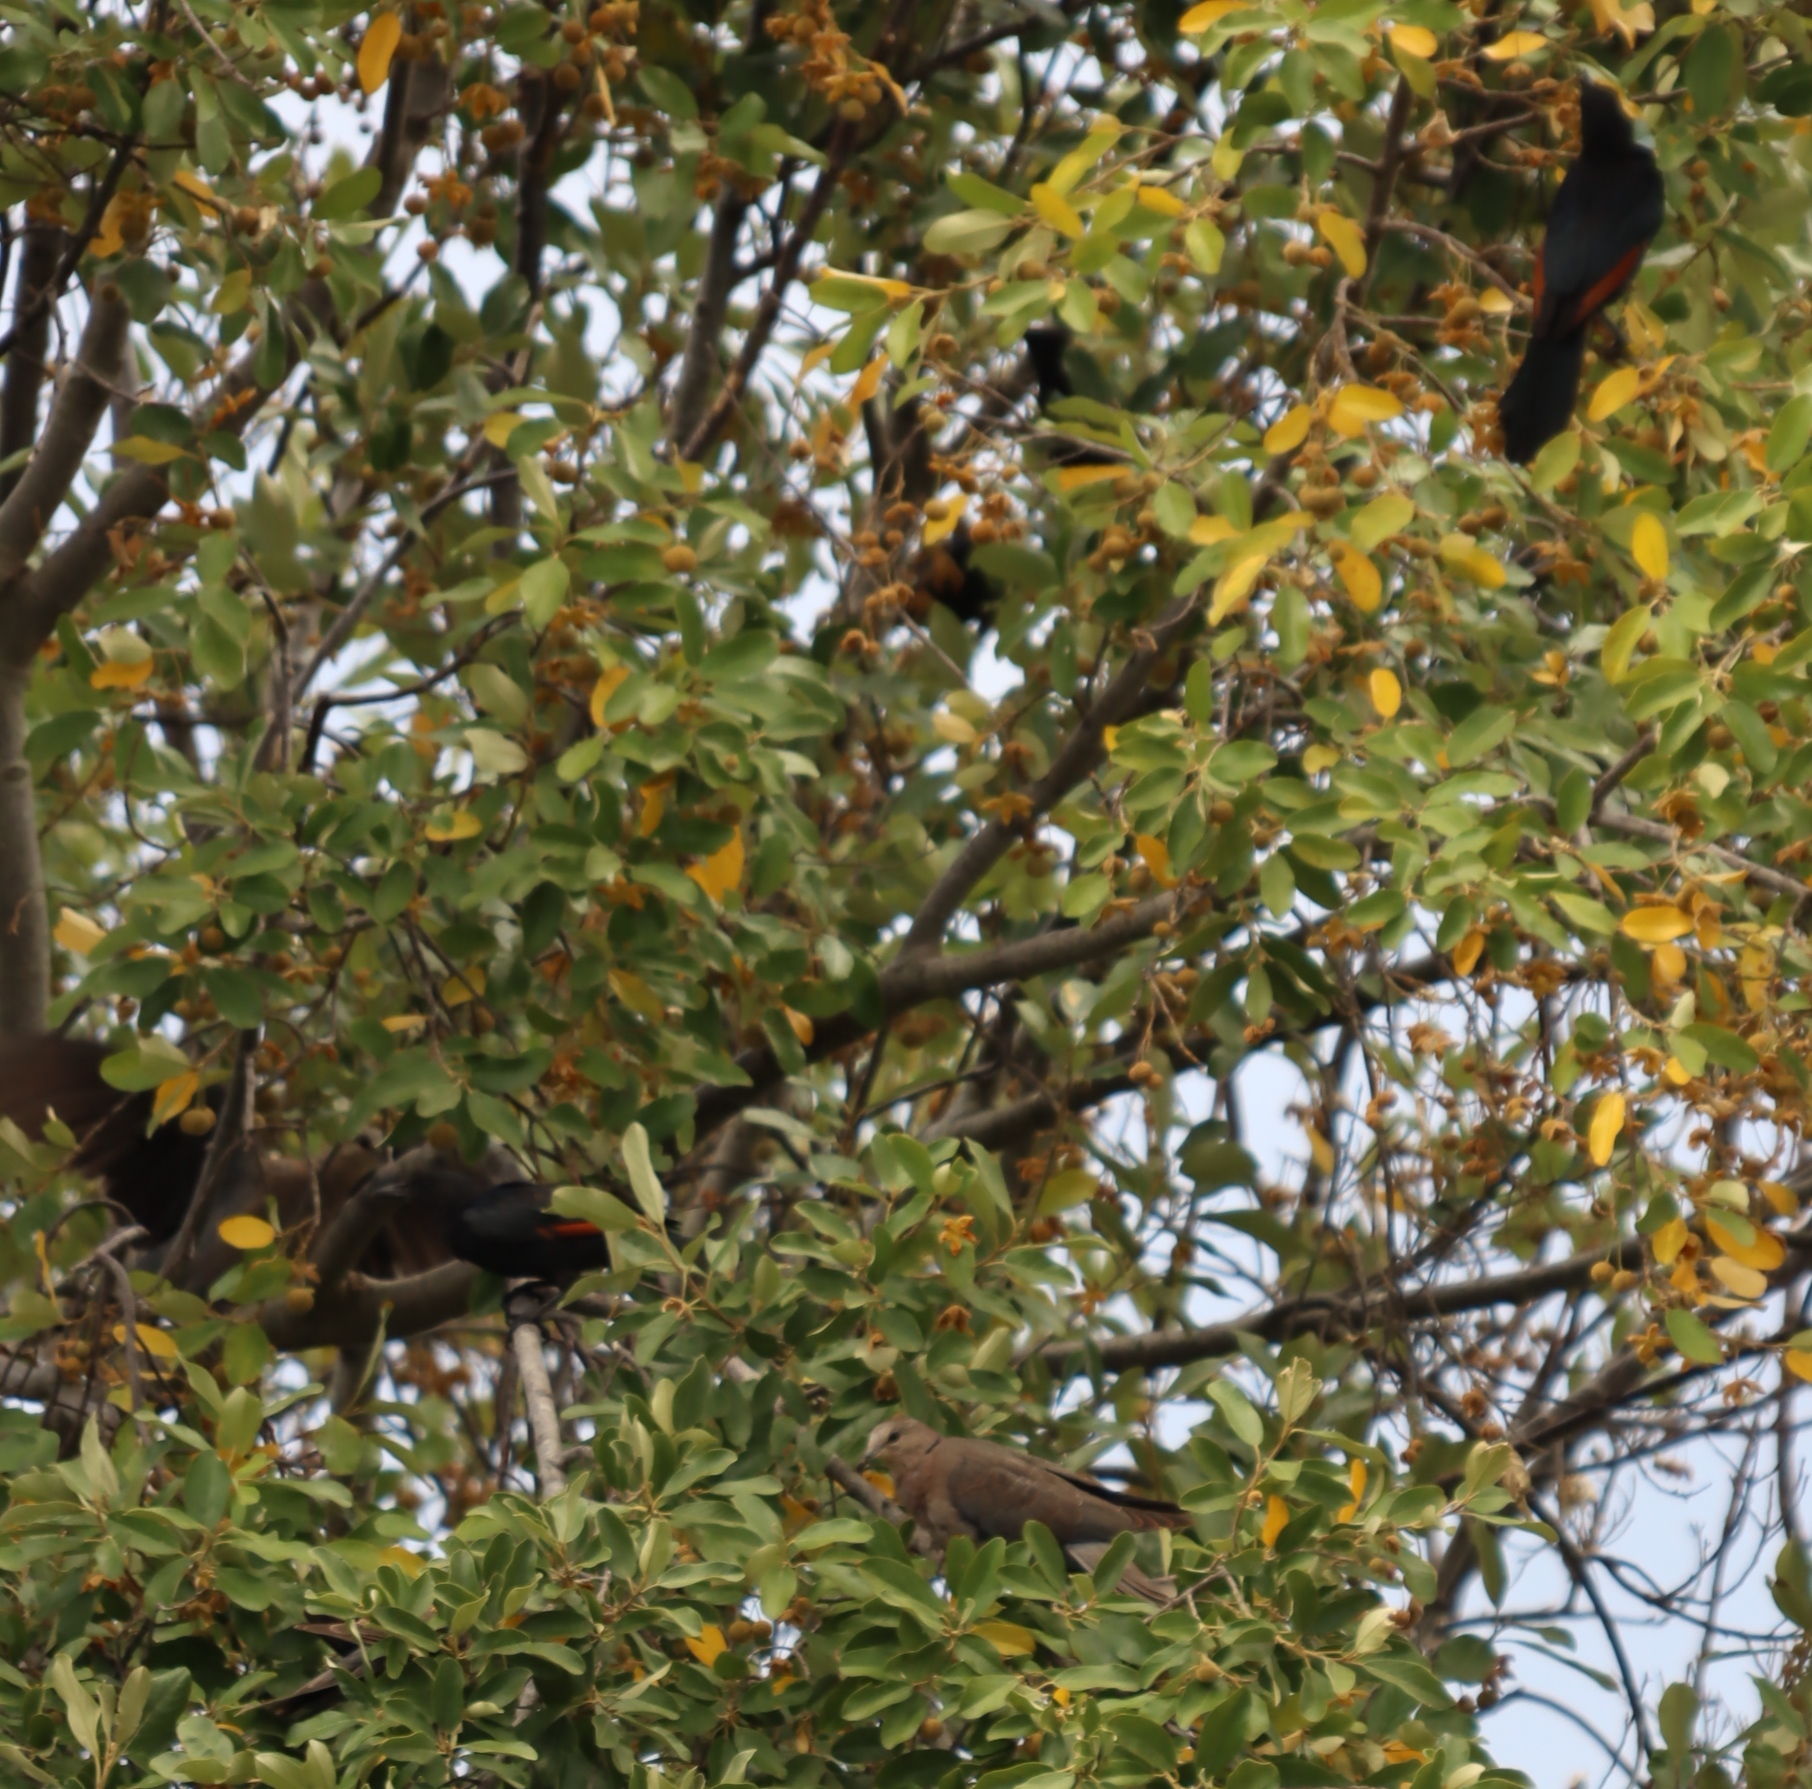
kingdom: Plantae
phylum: Tracheophyta
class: Magnoliopsida
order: Malpighiales
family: Achariaceae
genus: Kiggelaria
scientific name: Kiggelaria africana
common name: Wild peach
